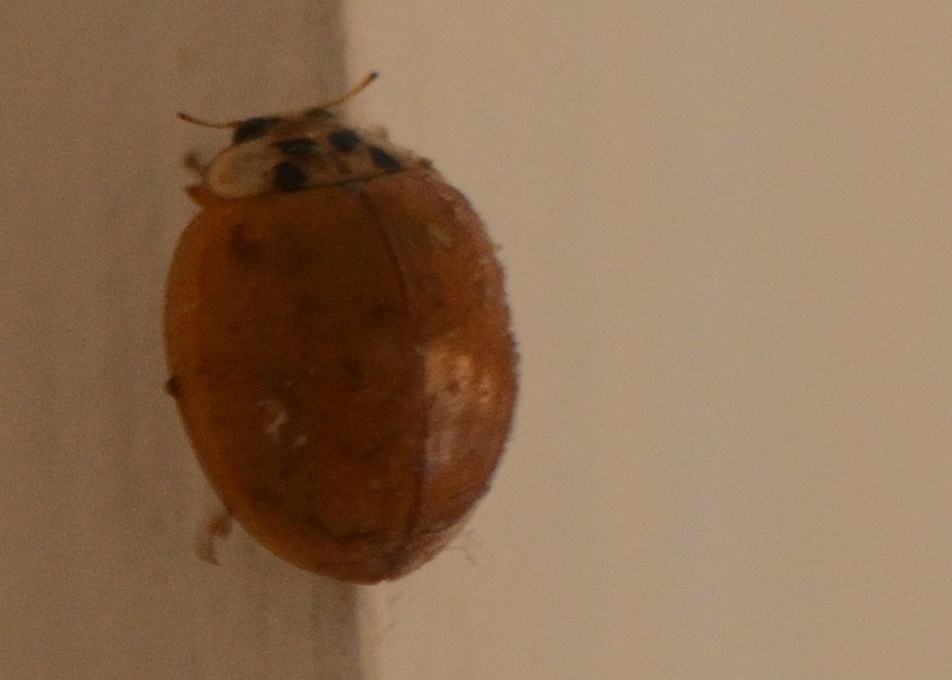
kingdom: Animalia
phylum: Arthropoda
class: Insecta
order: Coleoptera
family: Coccinellidae
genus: Harmonia
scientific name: Harmonia axyridis
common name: Harlequin ladybird
